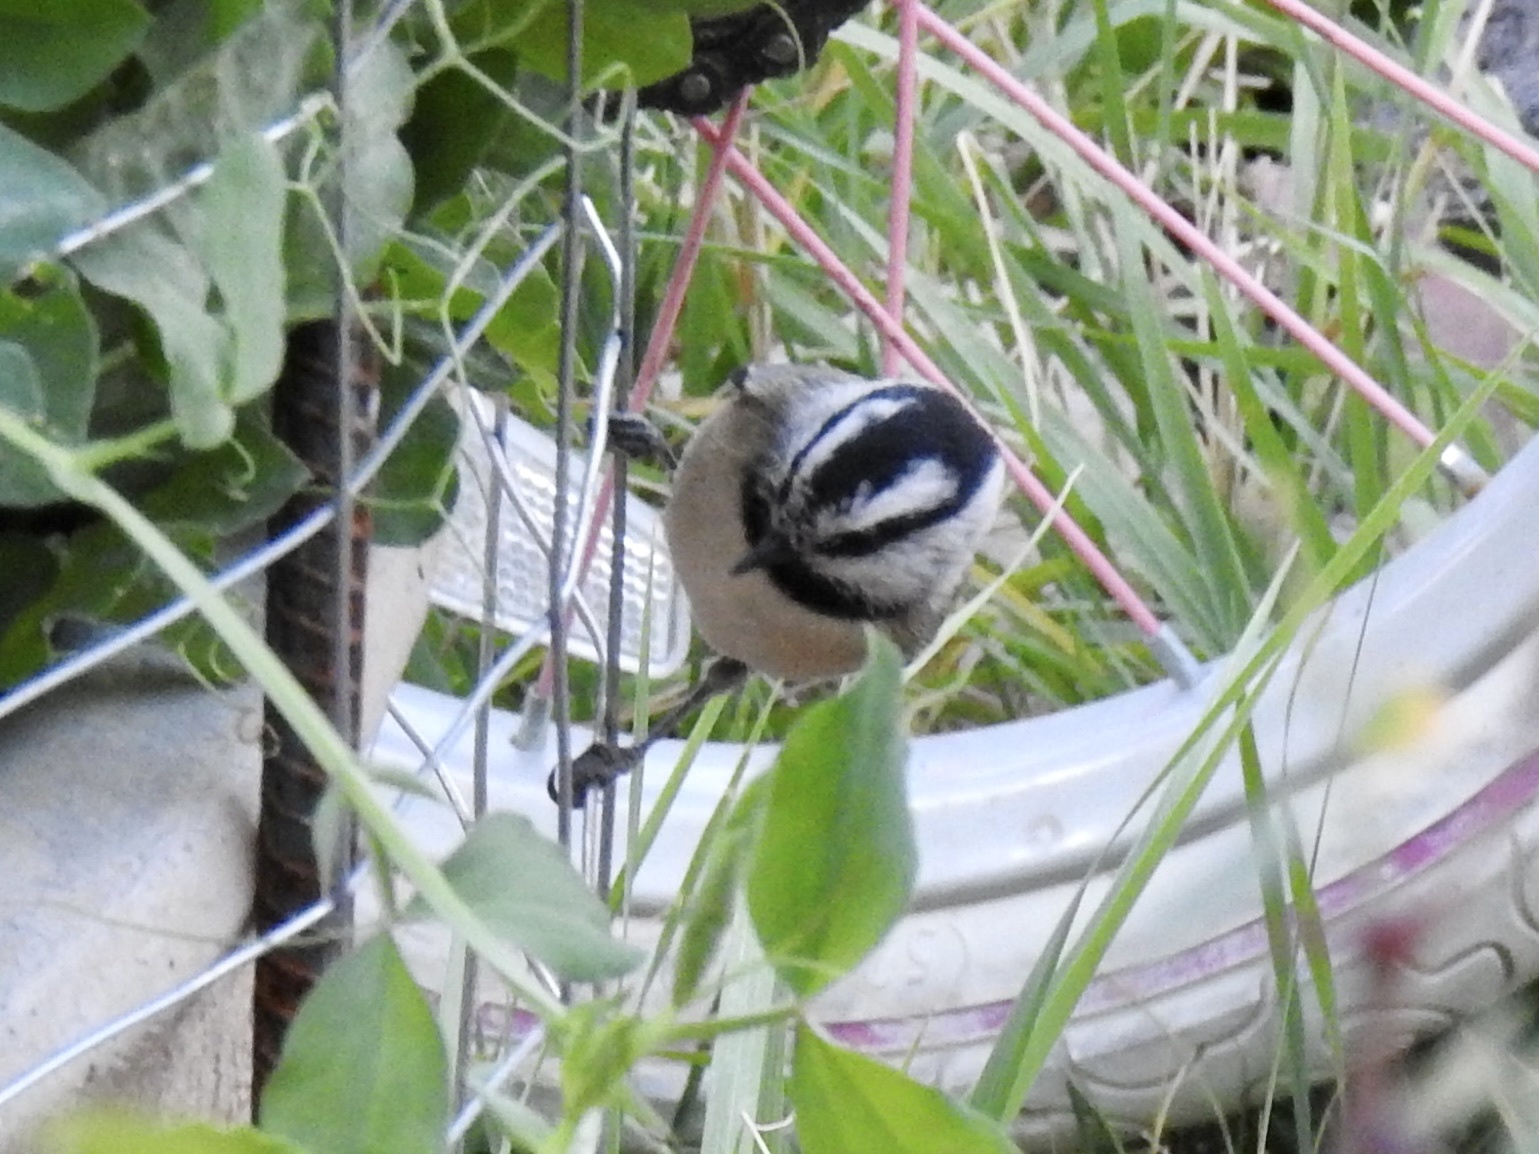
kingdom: Animalia
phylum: Chordata
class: Aves
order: Passeriformes
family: Paridae
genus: Poecile
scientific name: Poecile gambeli
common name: Mountain chickadee
